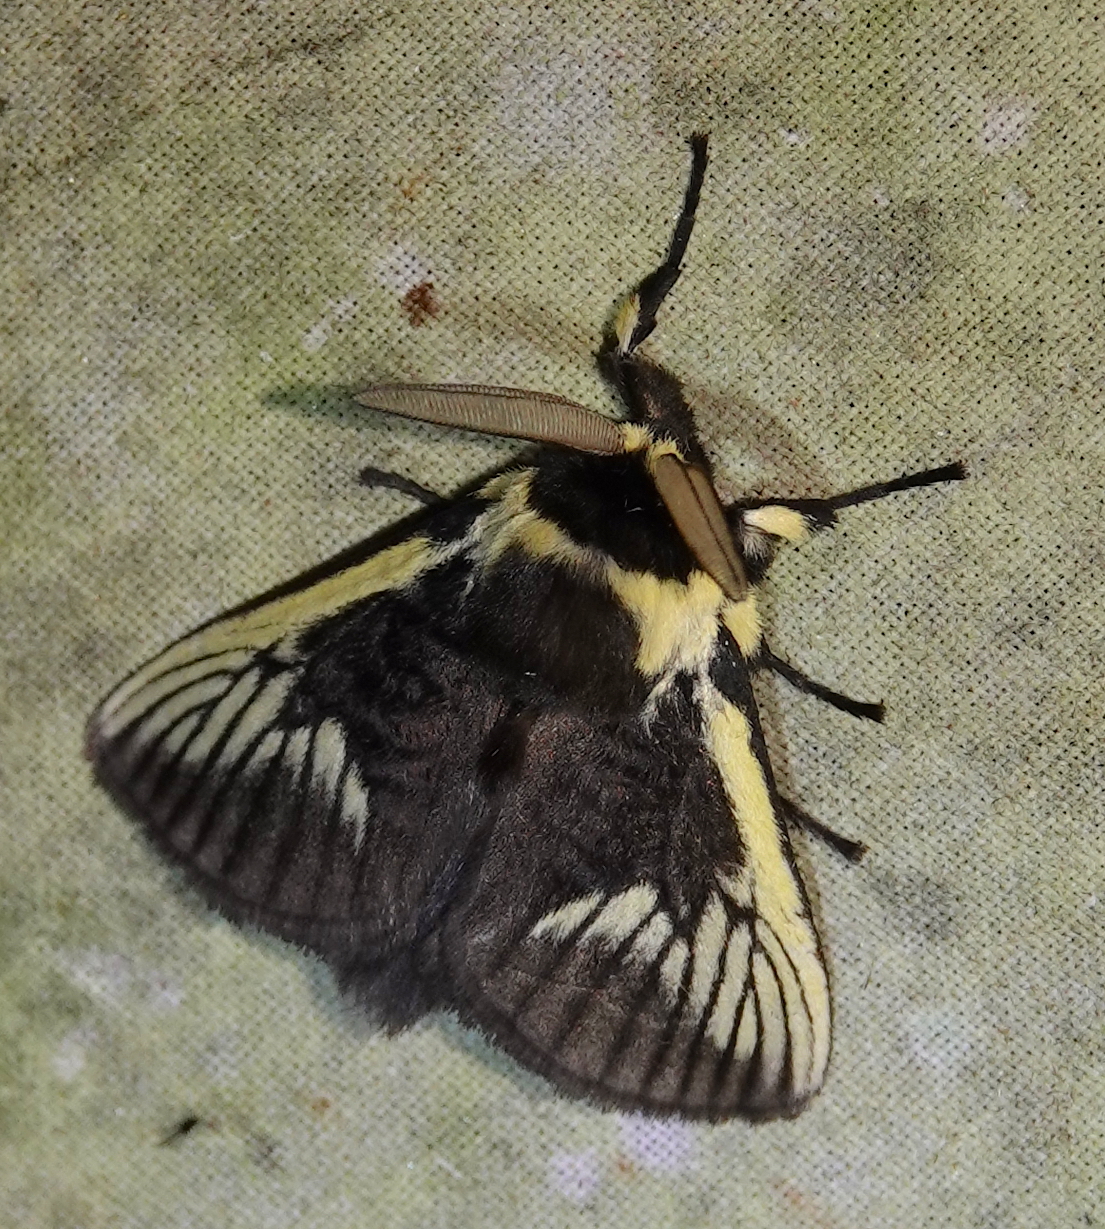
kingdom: Animalia
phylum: Arthropoda
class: Insecta
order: Lepidoptera
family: Megalopygidae
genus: Podalia
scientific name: Podalia angulata
